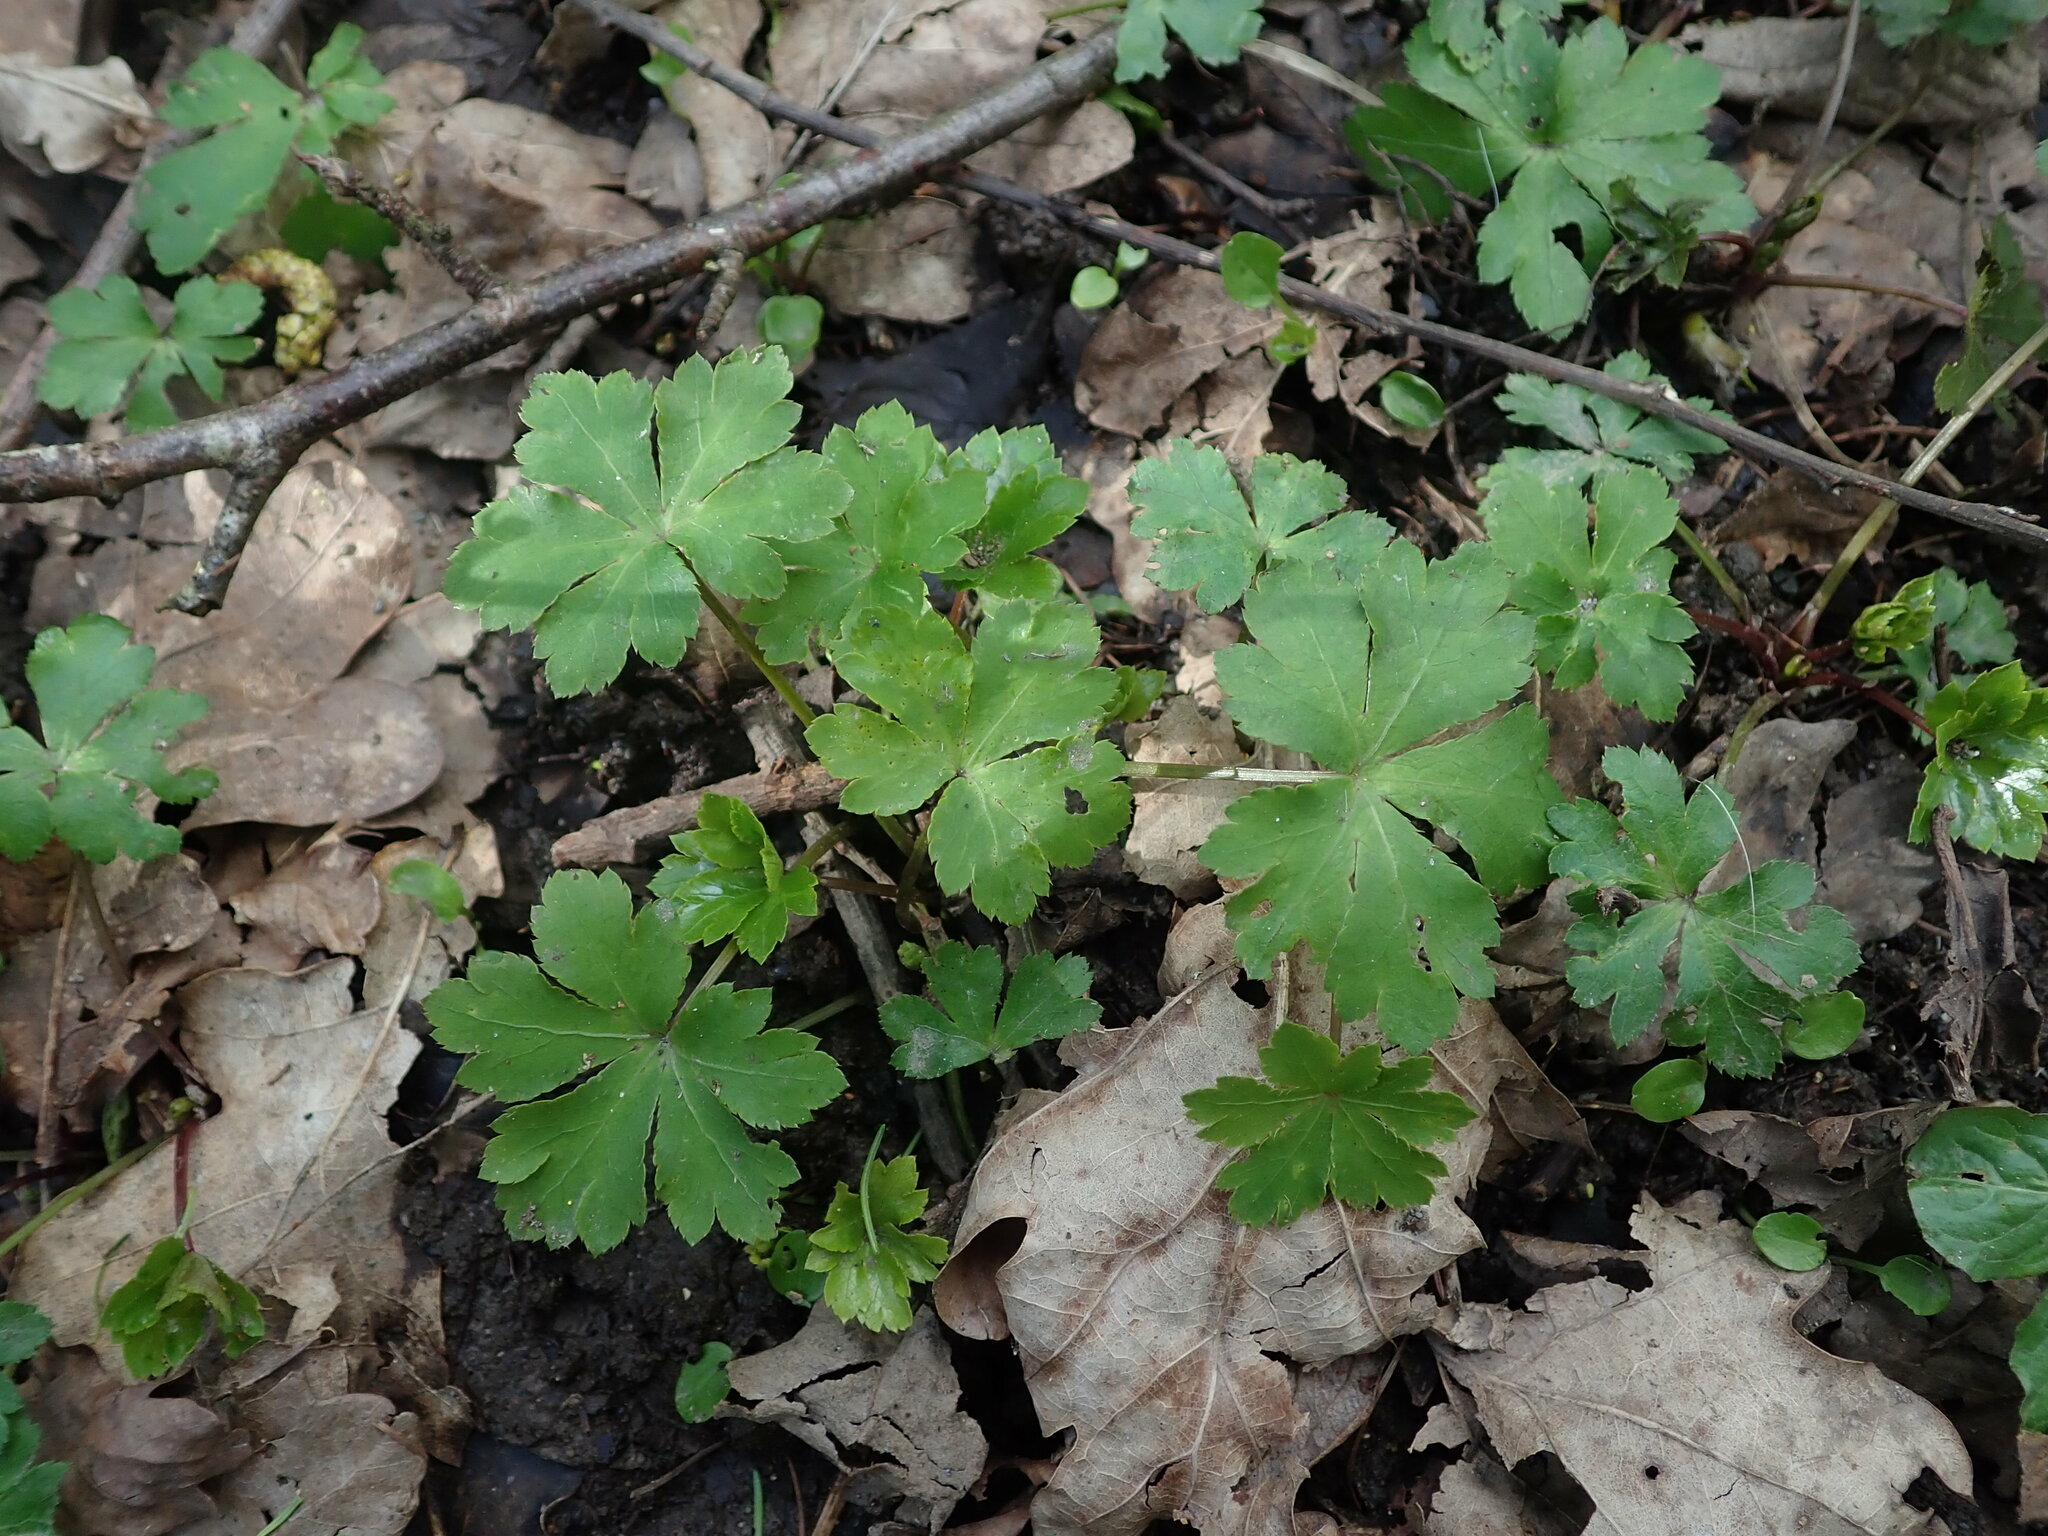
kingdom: Plantae
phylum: Tracheophyta
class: Magnoliopsida
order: Apiales
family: Apiaceae
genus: Sanicula
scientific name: Sanicula europaea
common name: Sanicle
